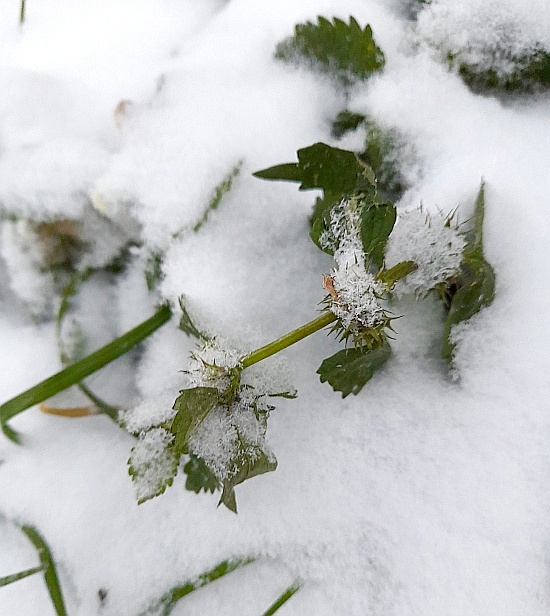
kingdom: Plantae
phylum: Tracheophyta
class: Magnoliopsida
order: Lamiales
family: Lamiaceae
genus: Lamium
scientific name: Lamium album
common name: White dead-nettle
